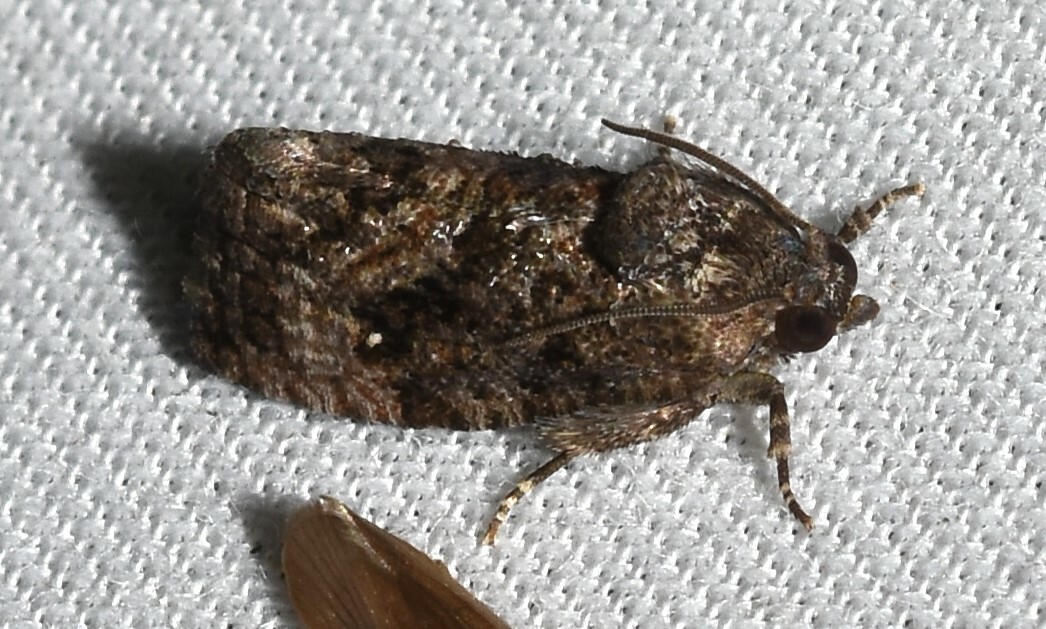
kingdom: Animalia
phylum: Arthropoda
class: Insecta
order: Lepidoptera
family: Tortricidae
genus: Gymnandrosoma
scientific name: Gymnandrosoma punctidiscanum
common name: Dotted ecdytolopha moth
